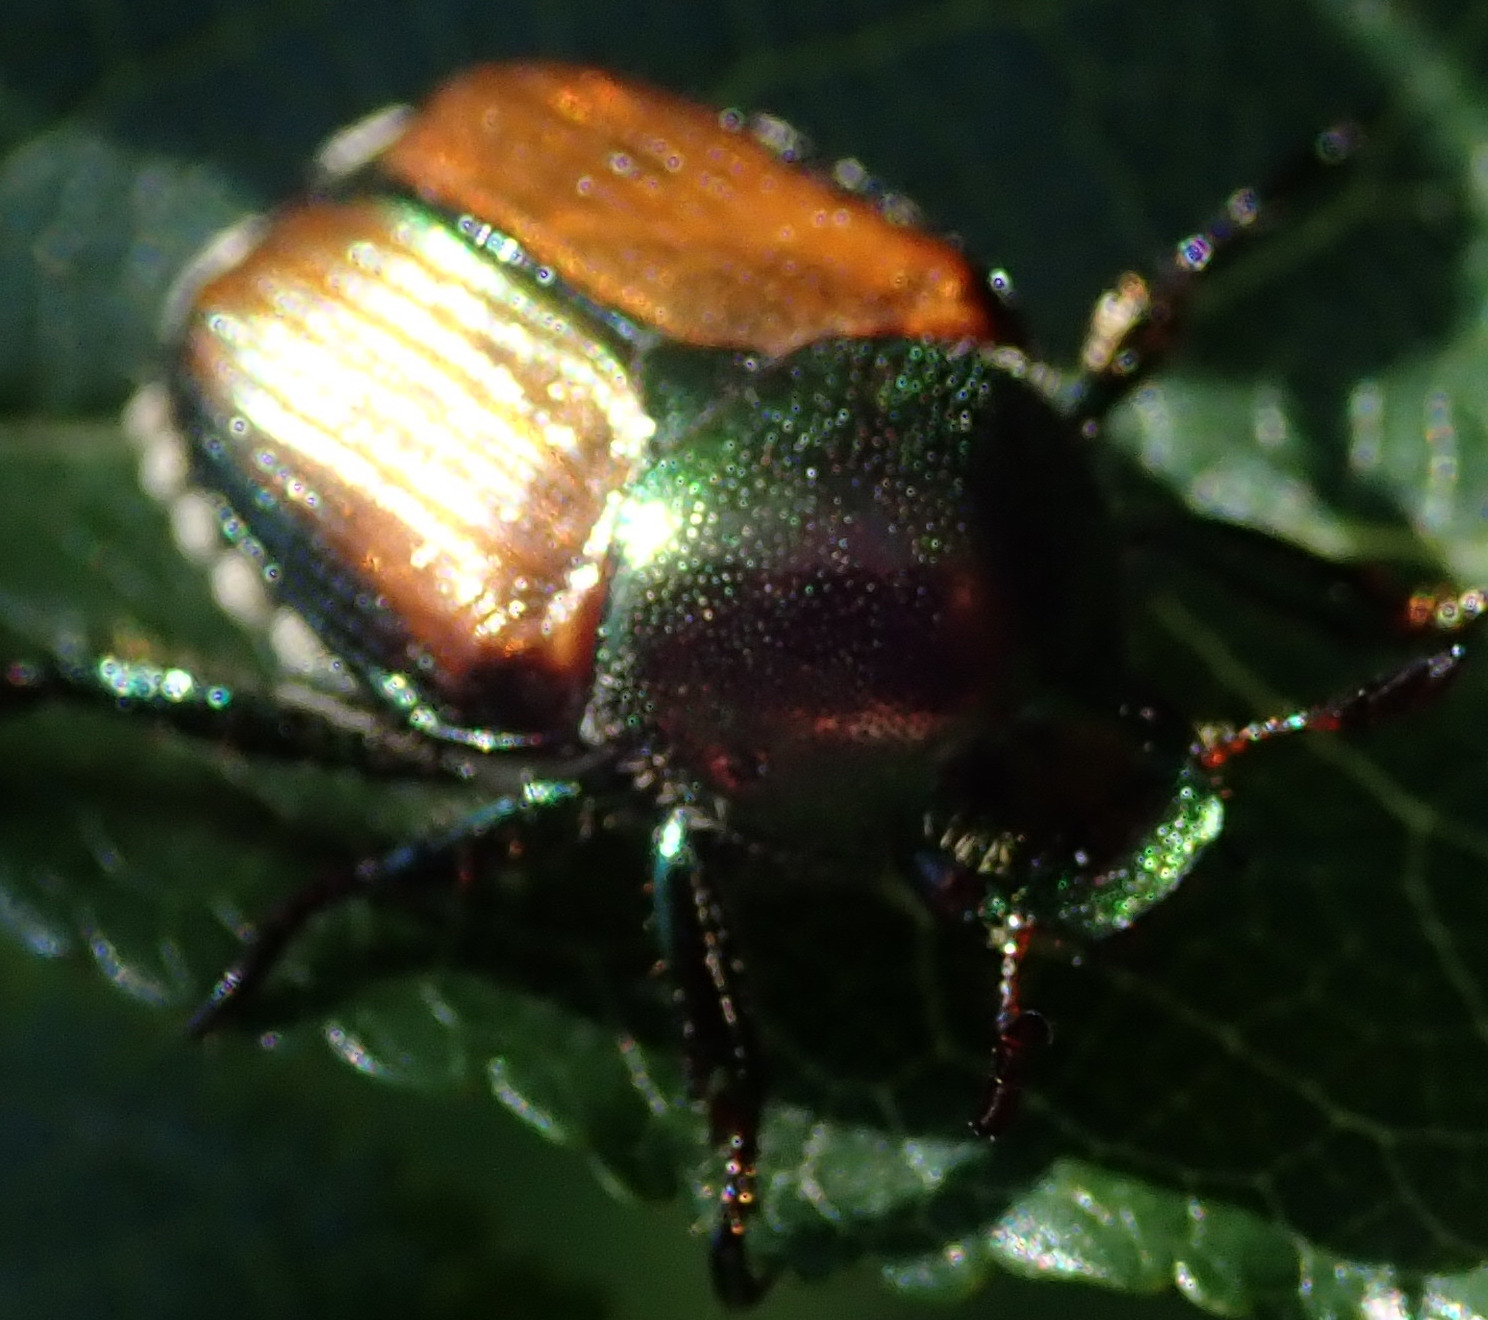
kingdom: Animalia
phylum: Arthropoda
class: Insecta
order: Coleoptera
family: Scarabaeidae
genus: Popillia
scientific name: Popillia japonica
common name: Japanese beetle
